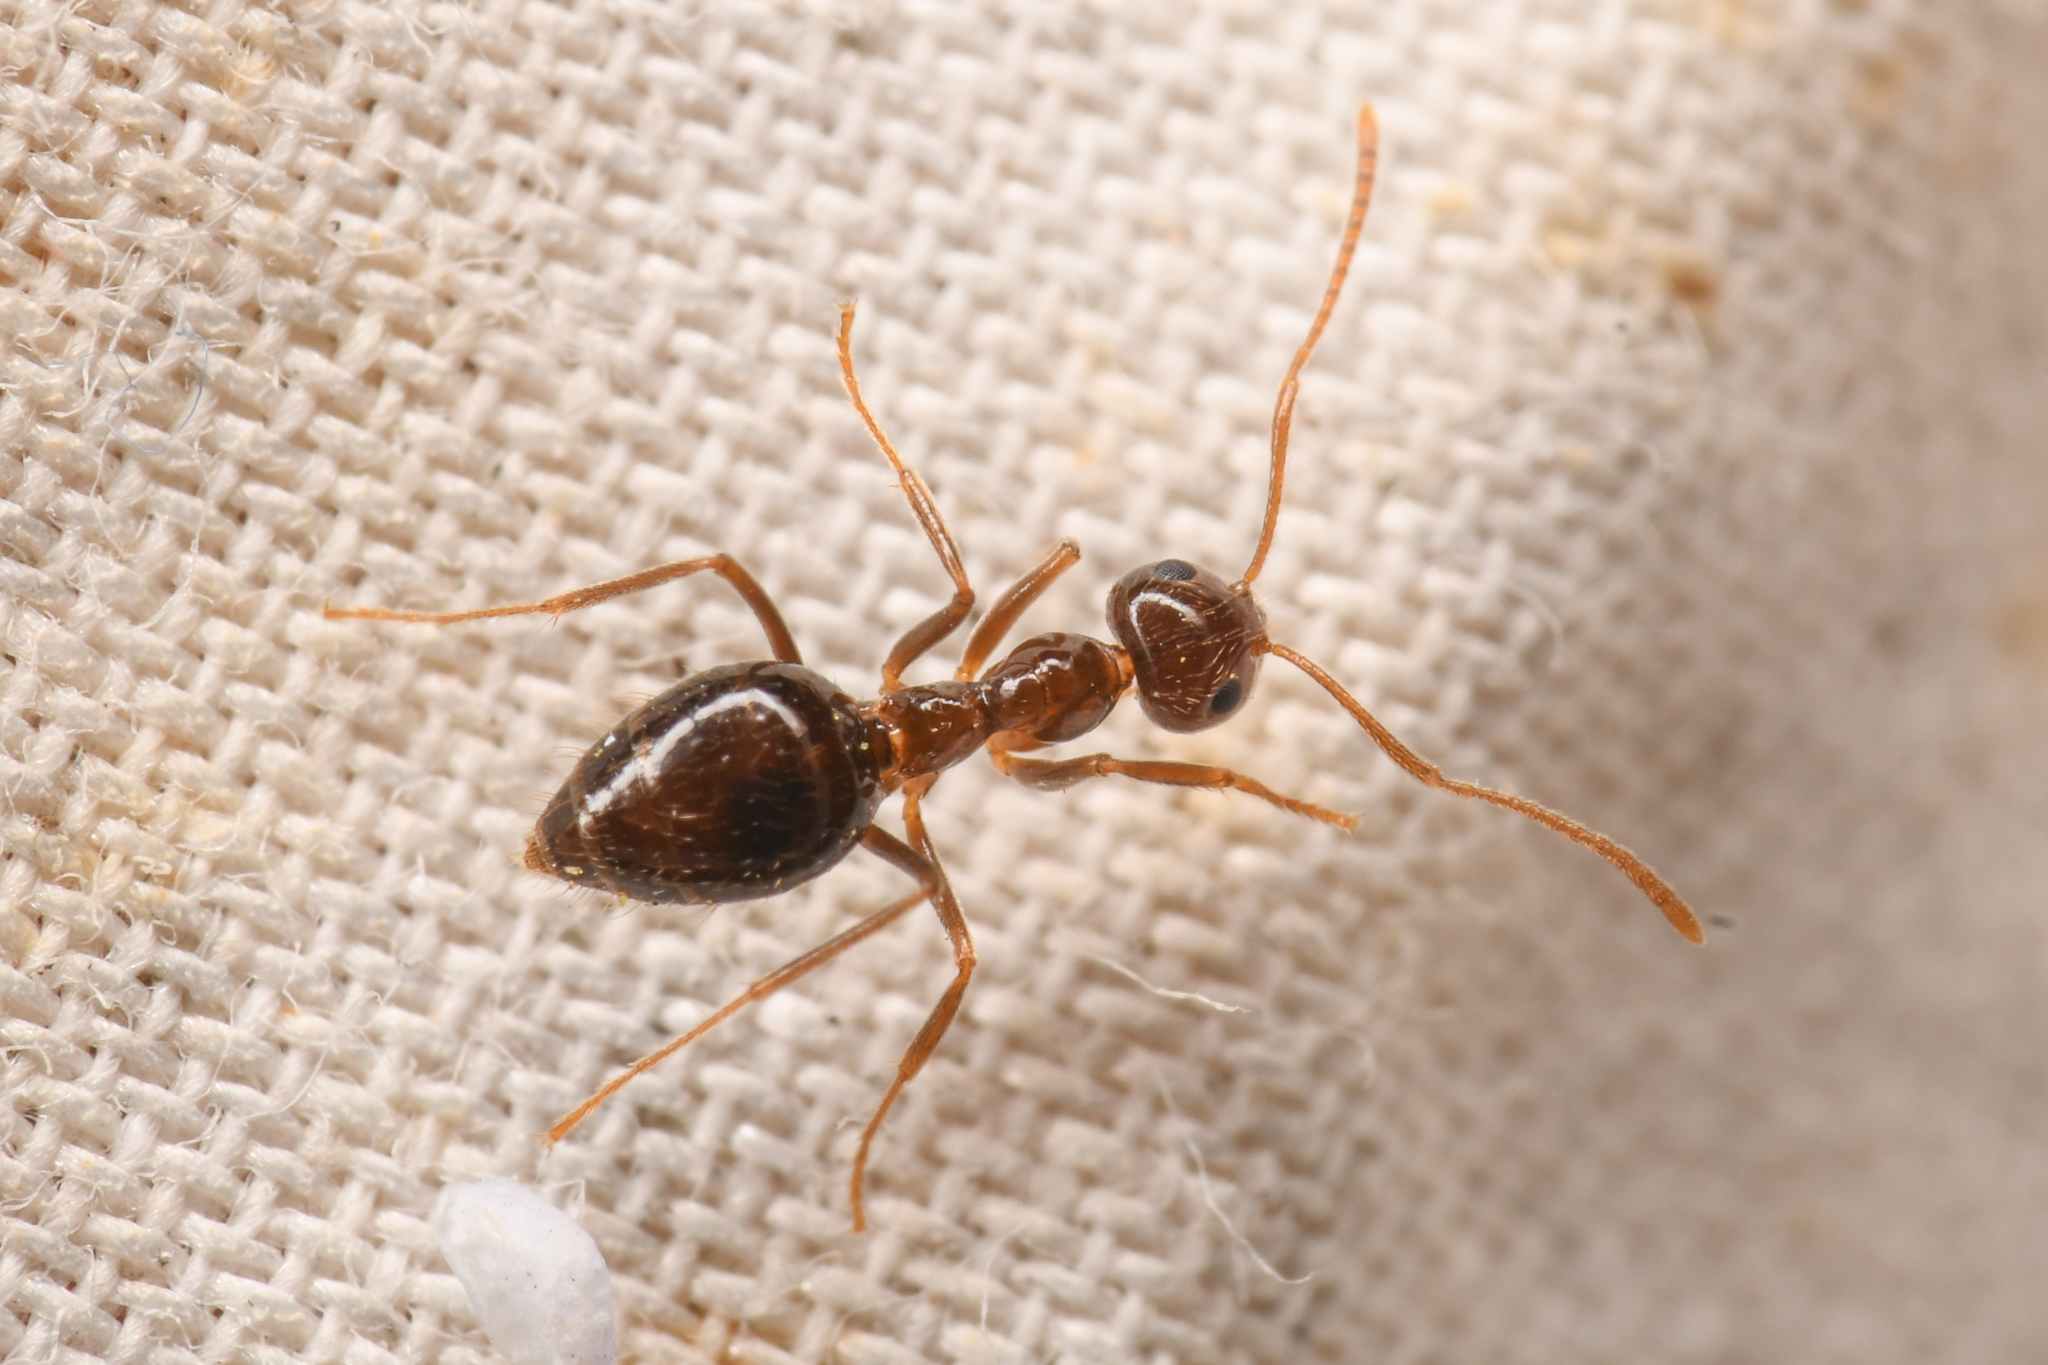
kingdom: Animalia
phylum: Arthropoda
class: Insecta
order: Hymenoptera
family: Formicidae
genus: Prenolepis
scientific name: Prenolepis imparis
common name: Small honey ant
